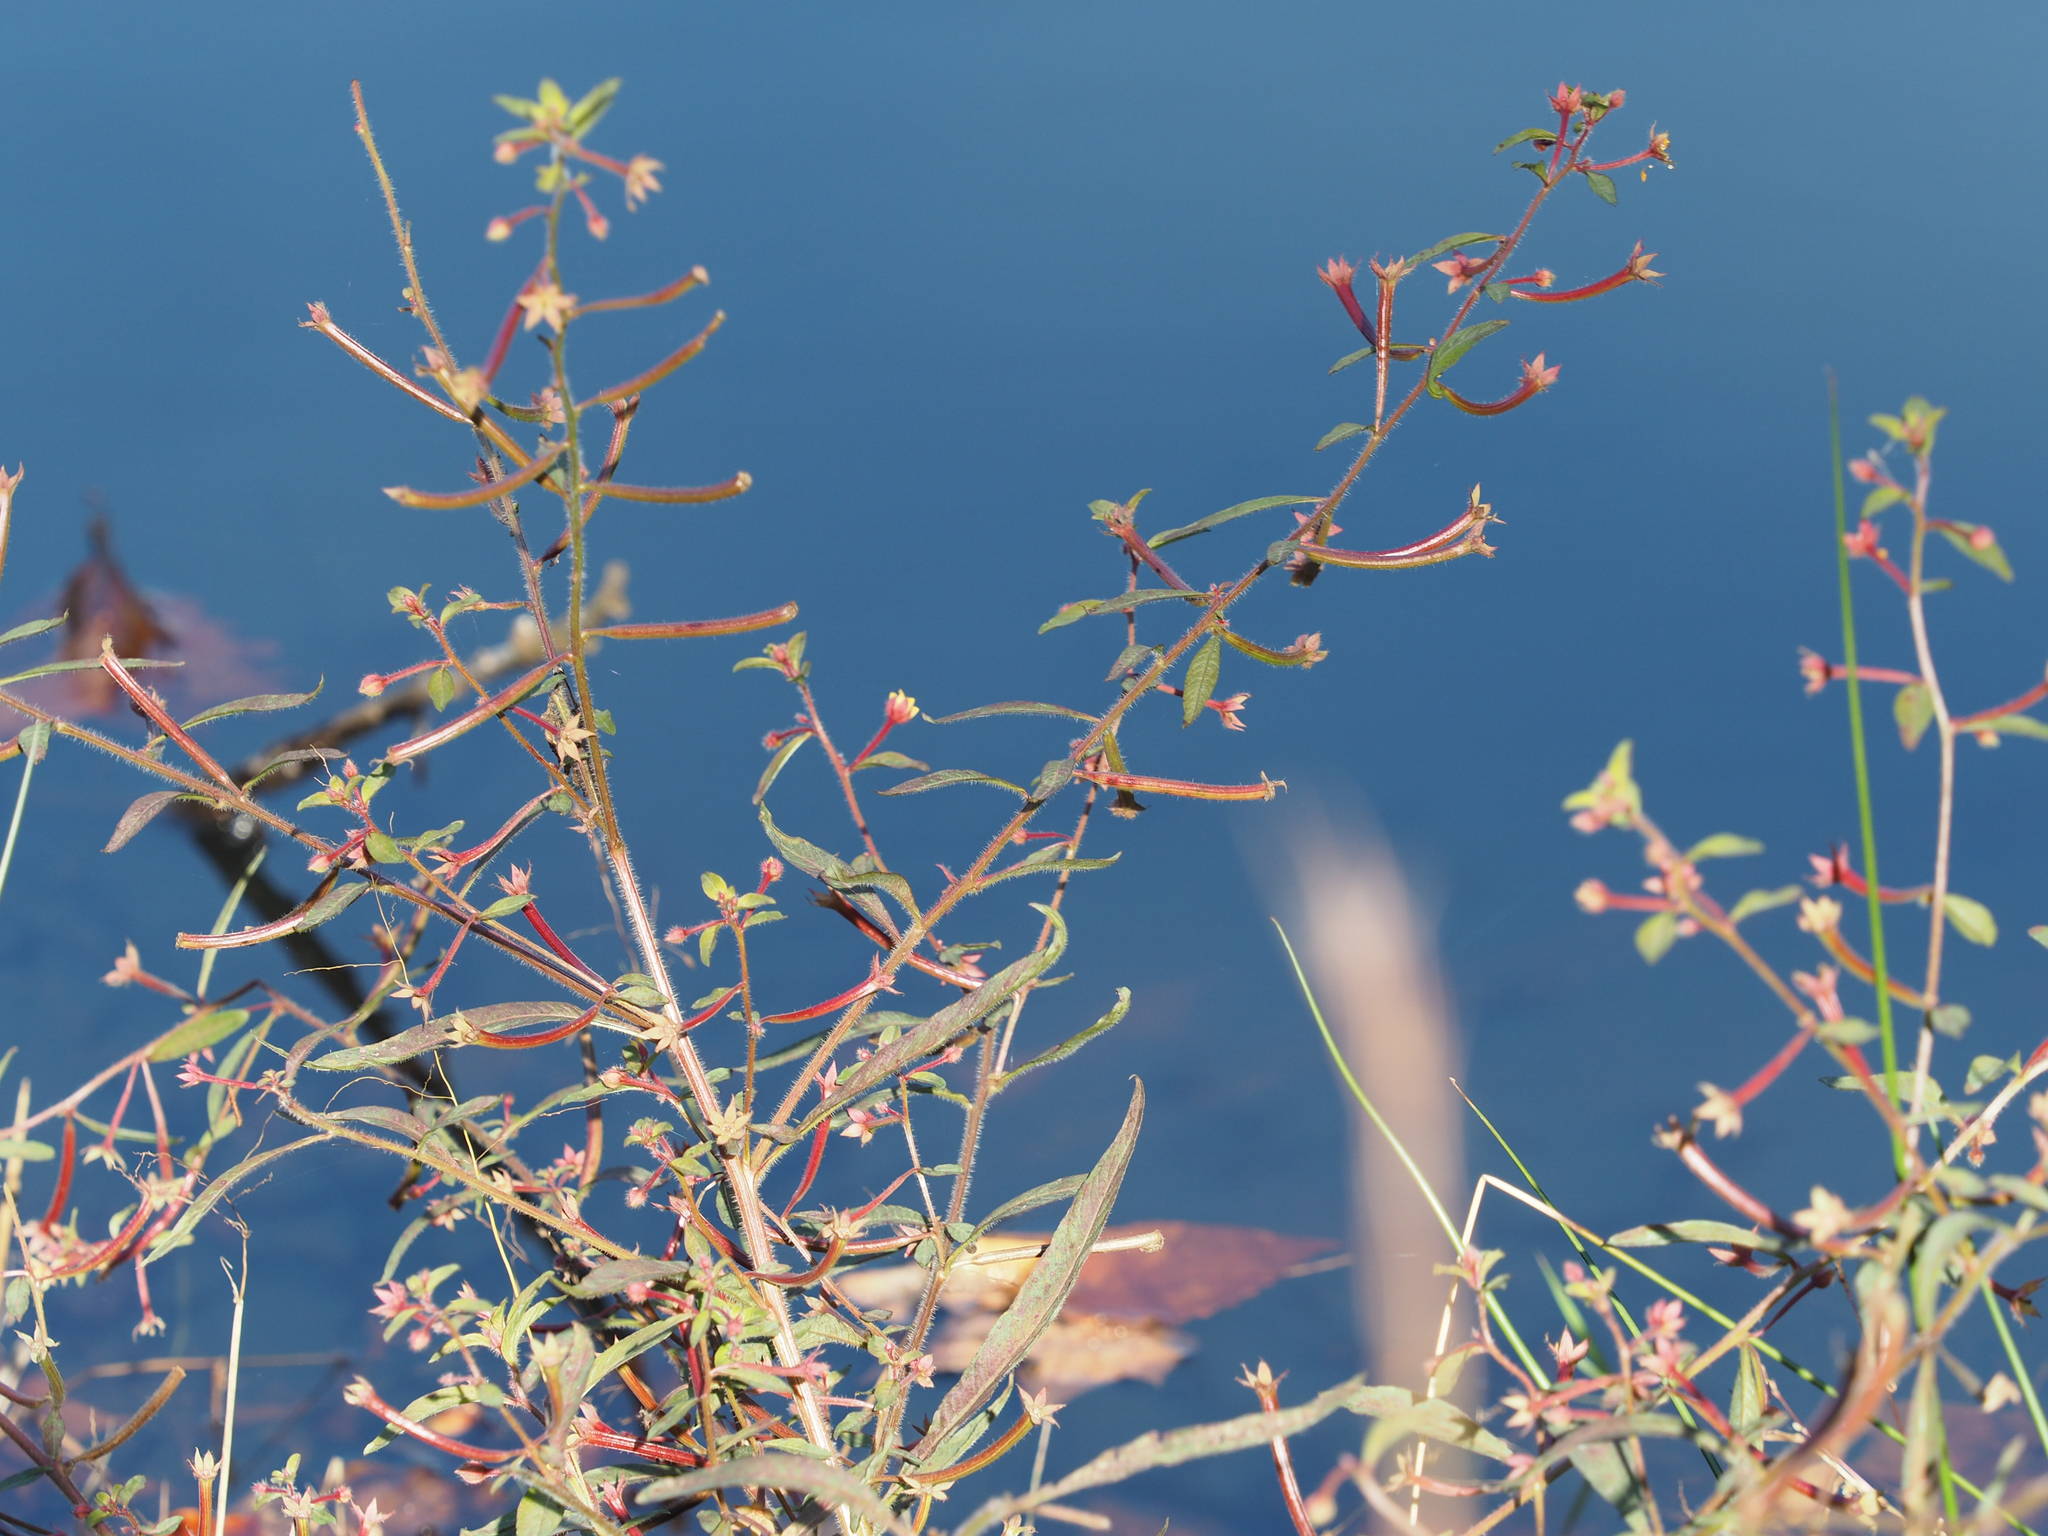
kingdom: Plantae
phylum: Tracheophyta
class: Magnoliopsida
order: Myrtales
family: Onagraceae
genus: Ludwigia
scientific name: Ludwigia leptocarpa
